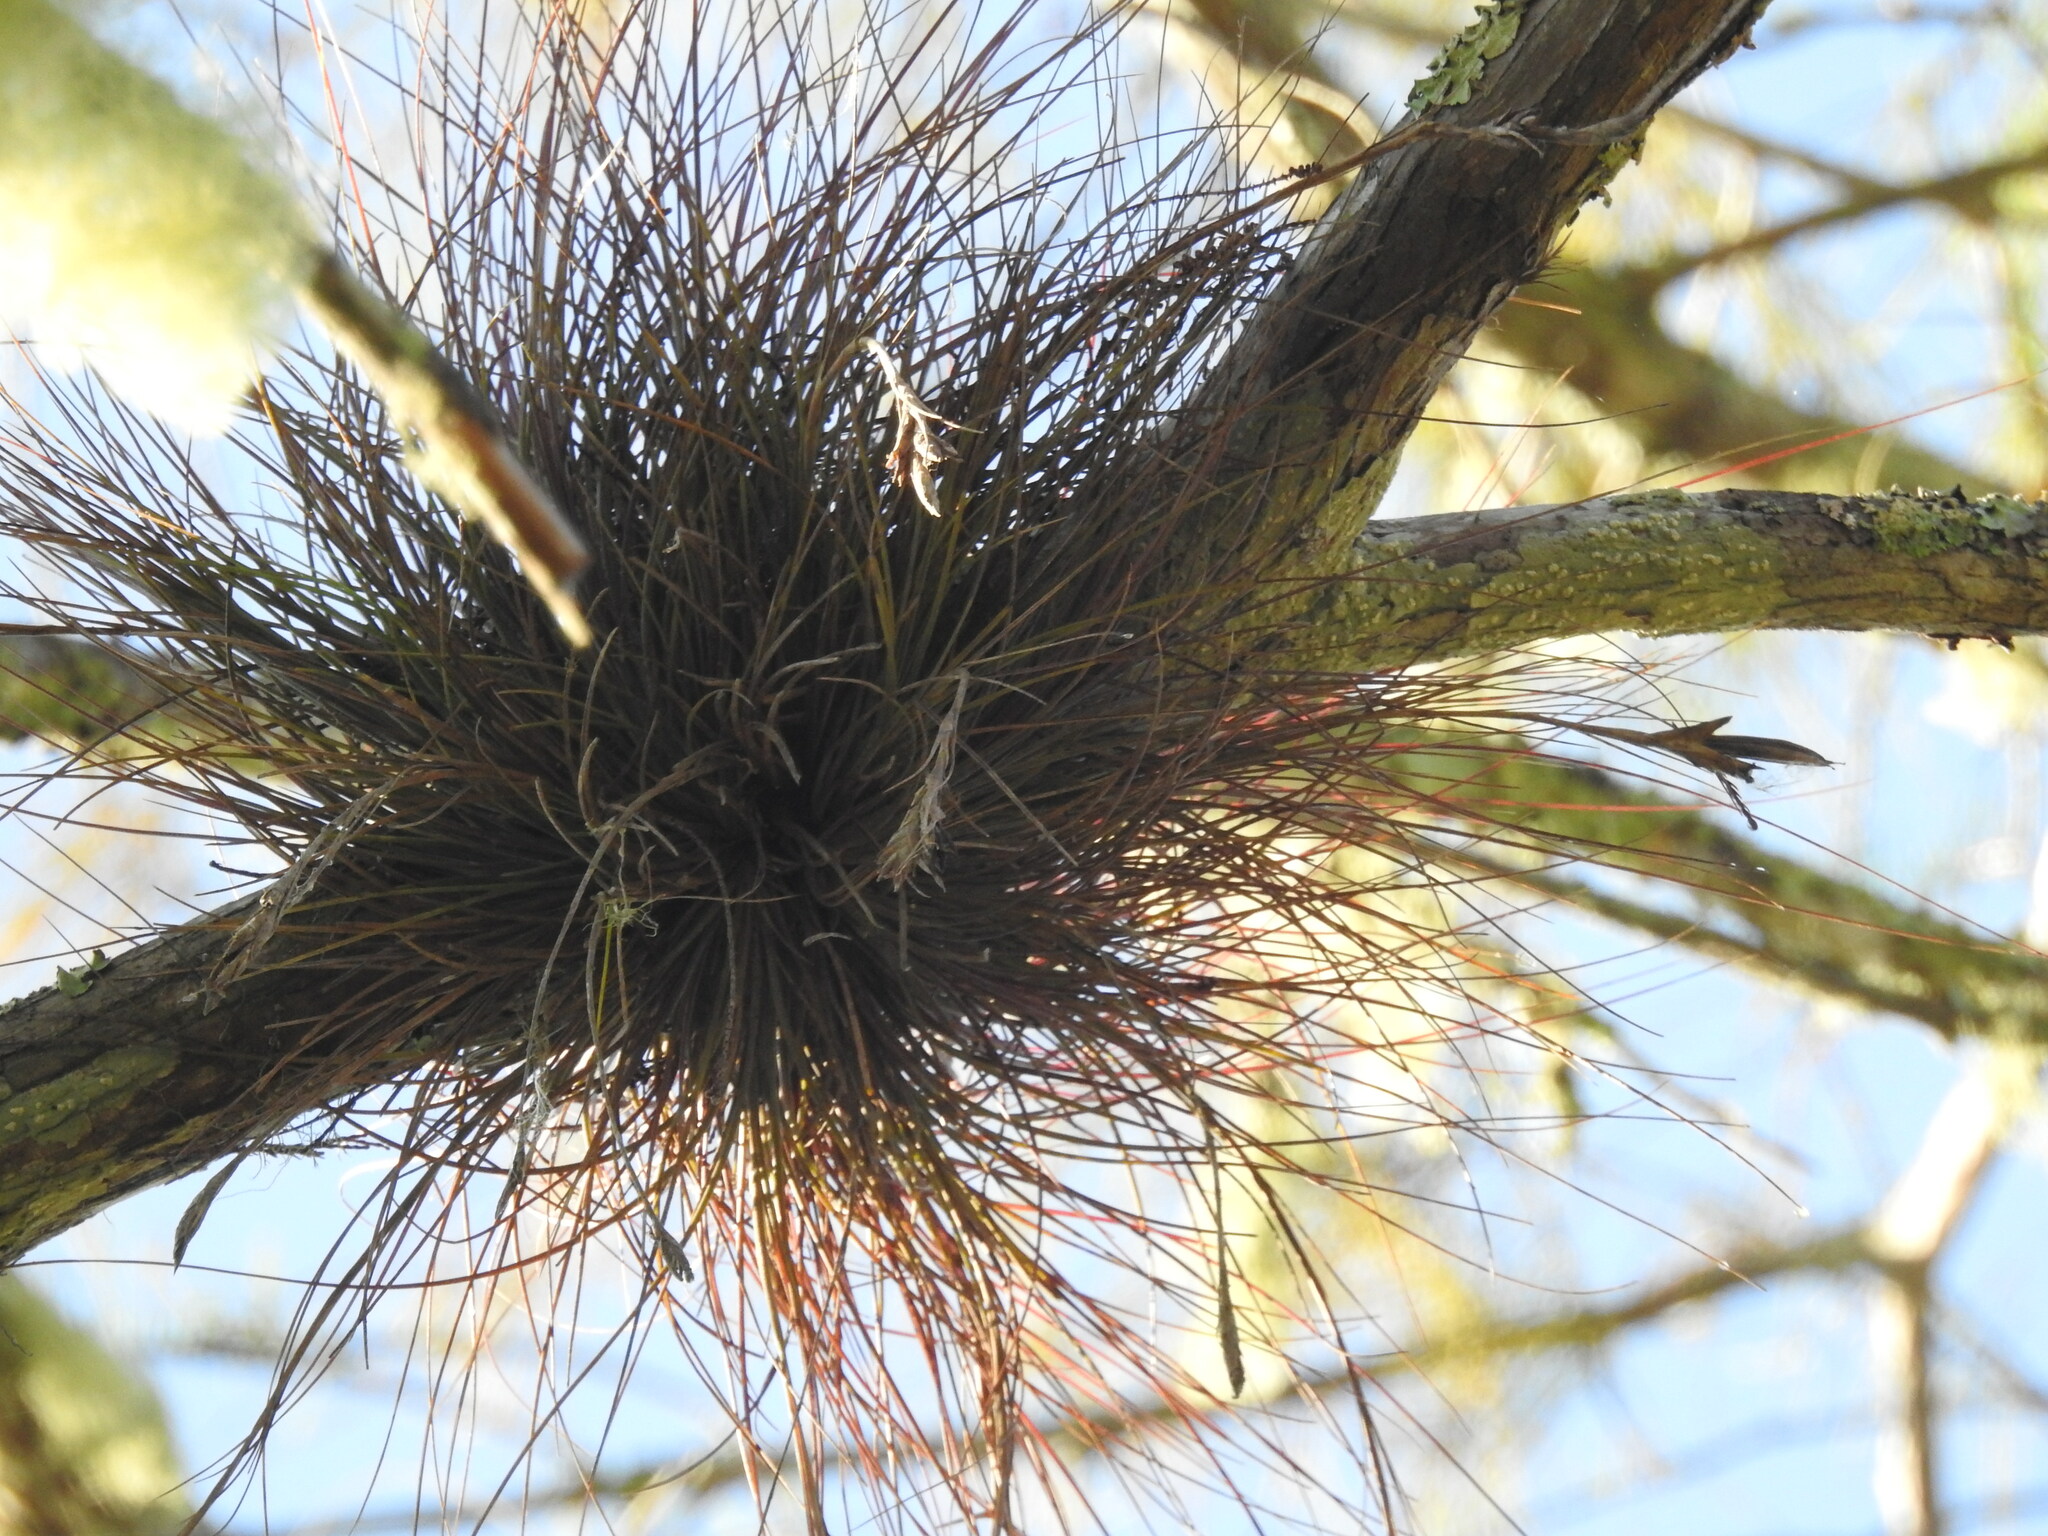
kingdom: Plantae
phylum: Tracheophyta
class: Liliopsida
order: Poales
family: Bromeliaceae
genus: Tillandsia
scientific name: Tillandsia setacea
